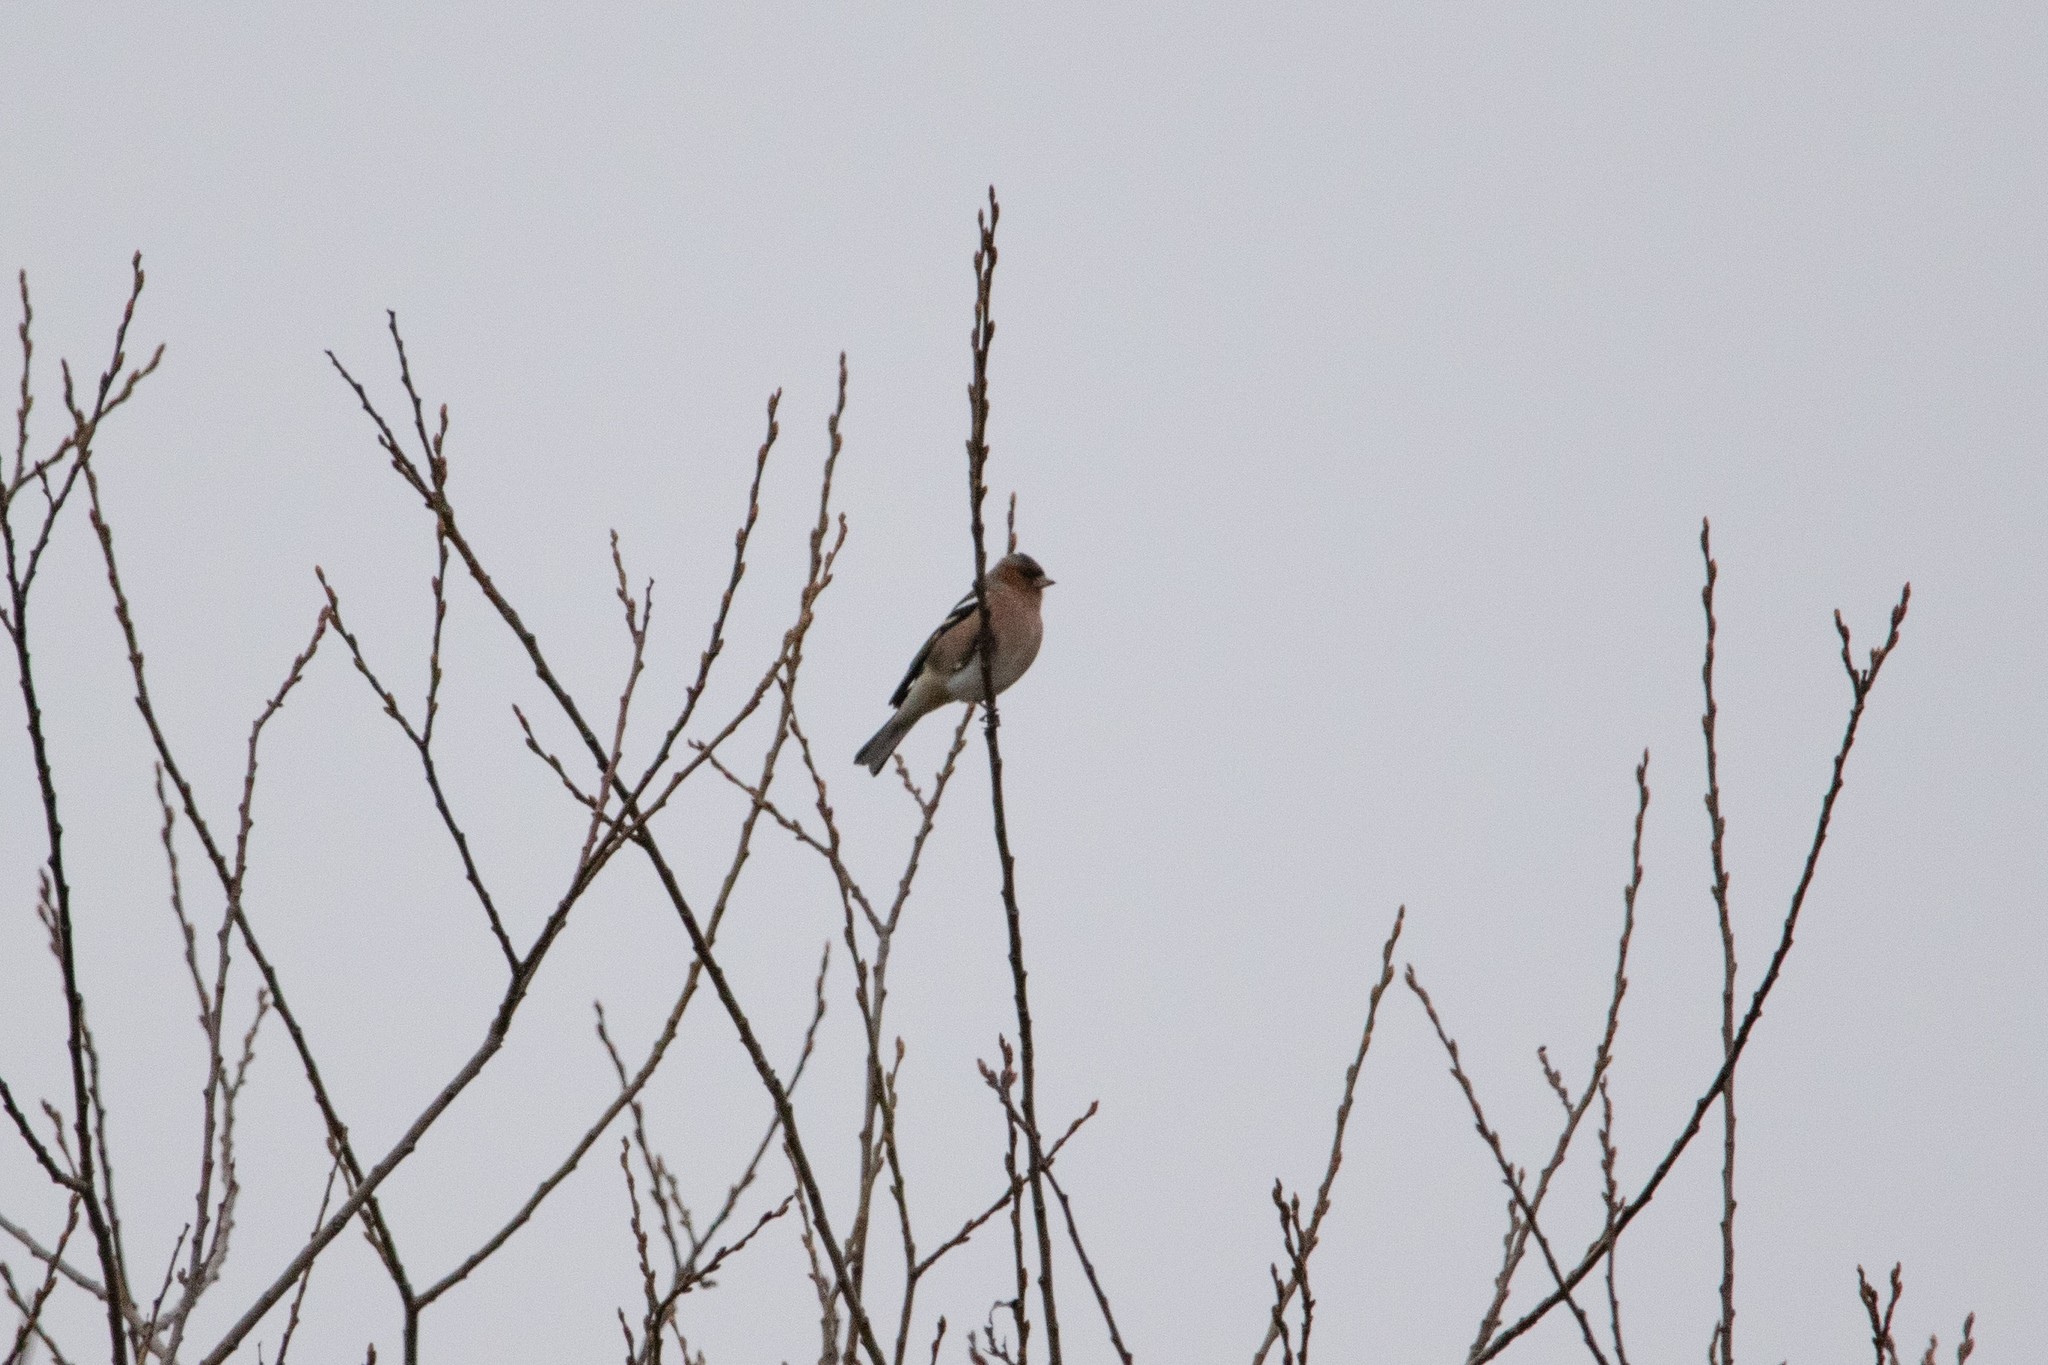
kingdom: Animalia
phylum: Chordata
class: Aves
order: Passeriformes
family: Fringillidae
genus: Fringilla
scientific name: Fringilla coelebs
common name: Common chaffinch
